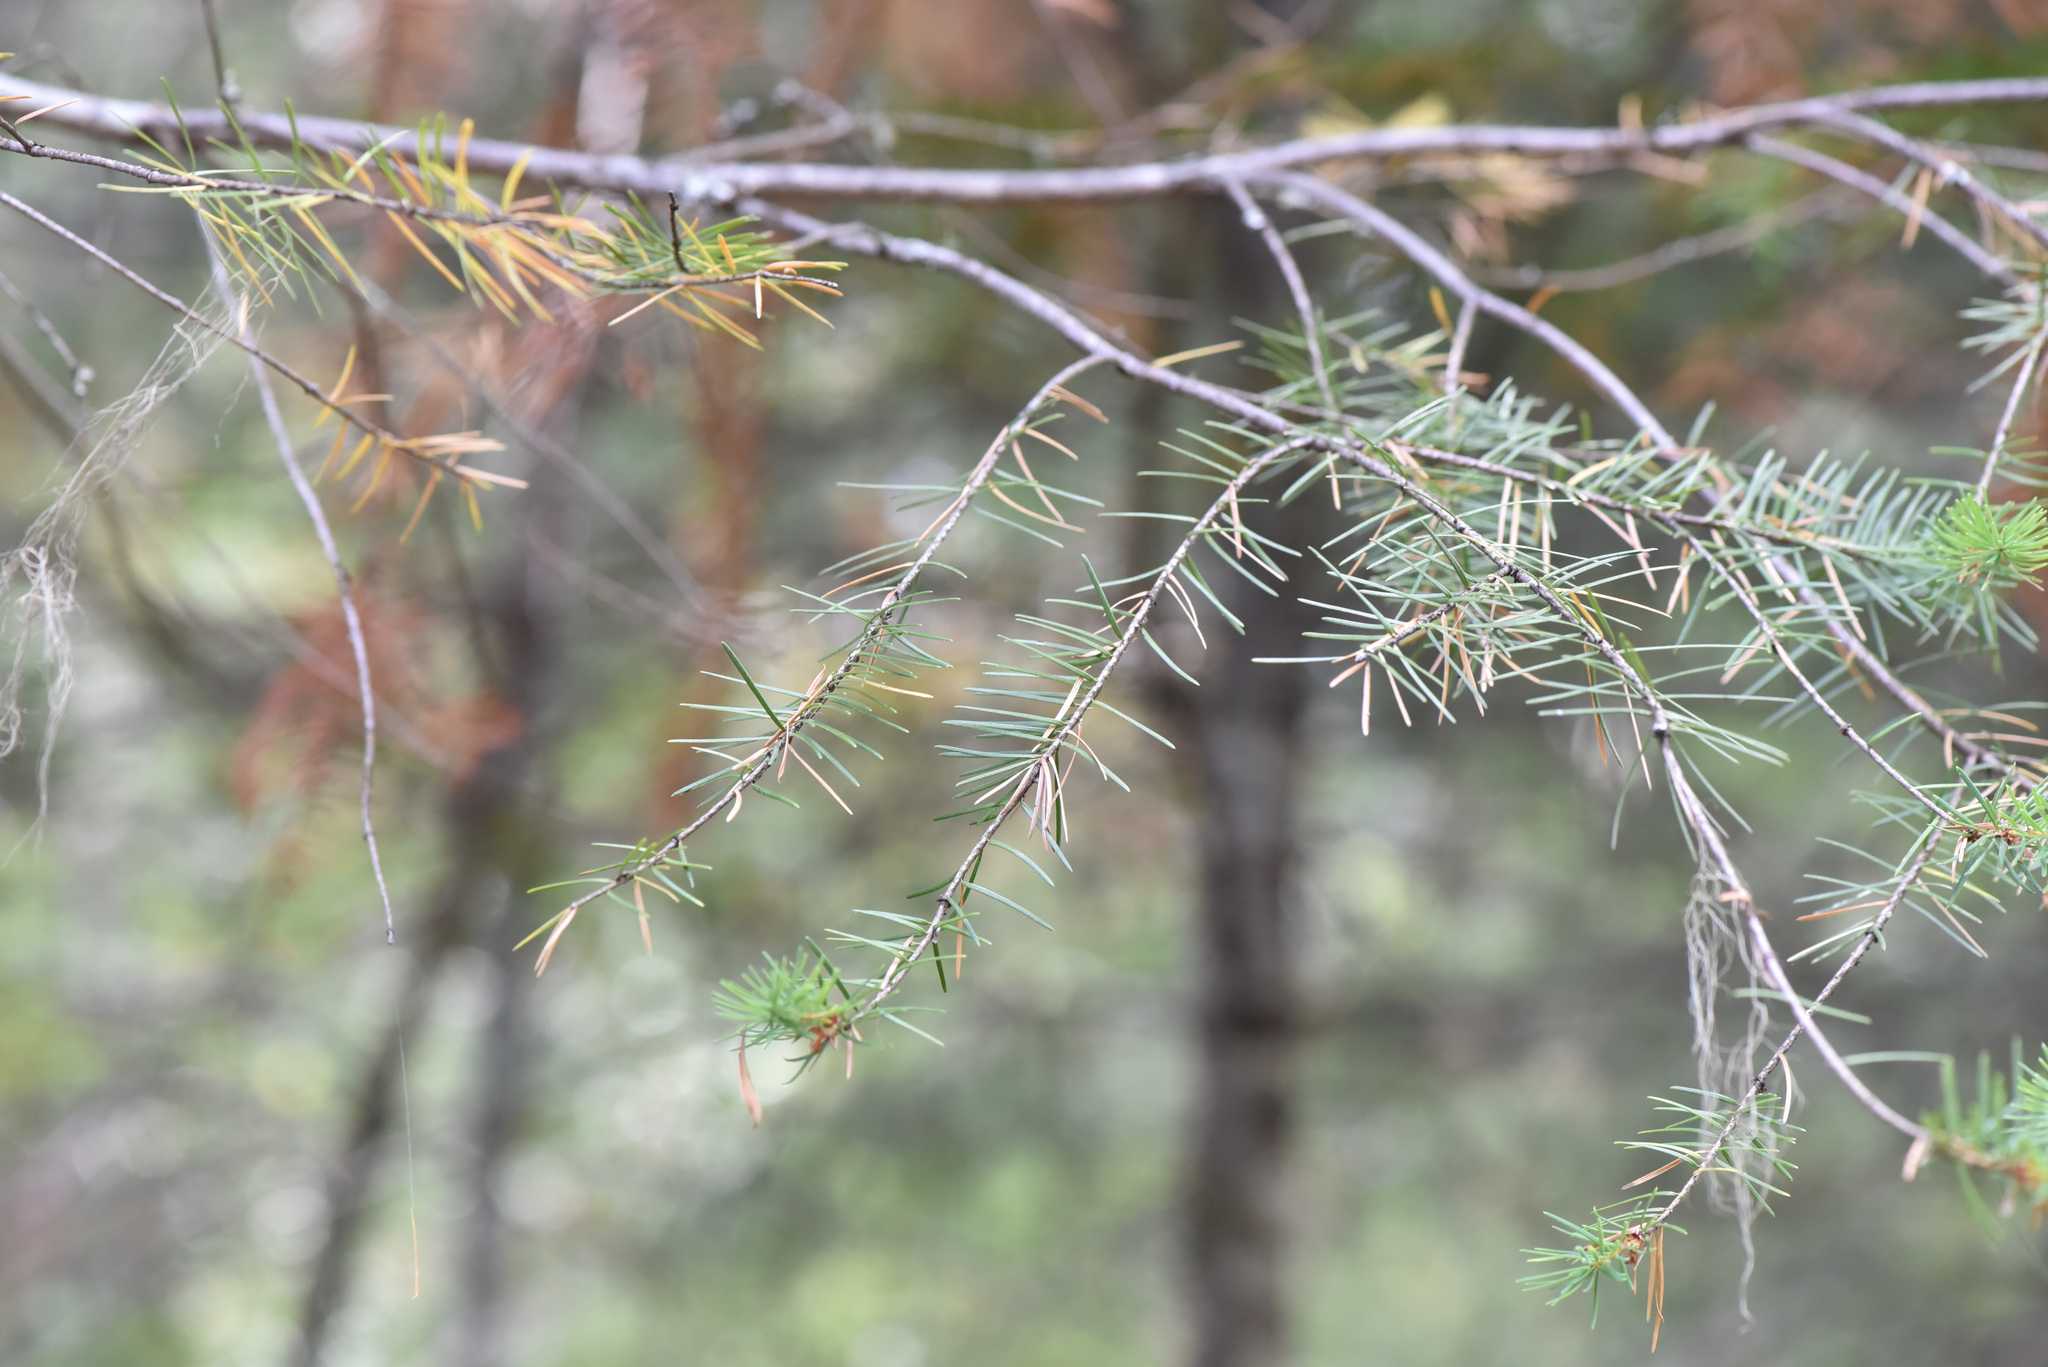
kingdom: Plantae
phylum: Tracheophyta
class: Pinopsida
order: Pinales
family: Pinaceae
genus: Pseudotsuga
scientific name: Pseudotsuga menziesii
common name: Douglas fir
